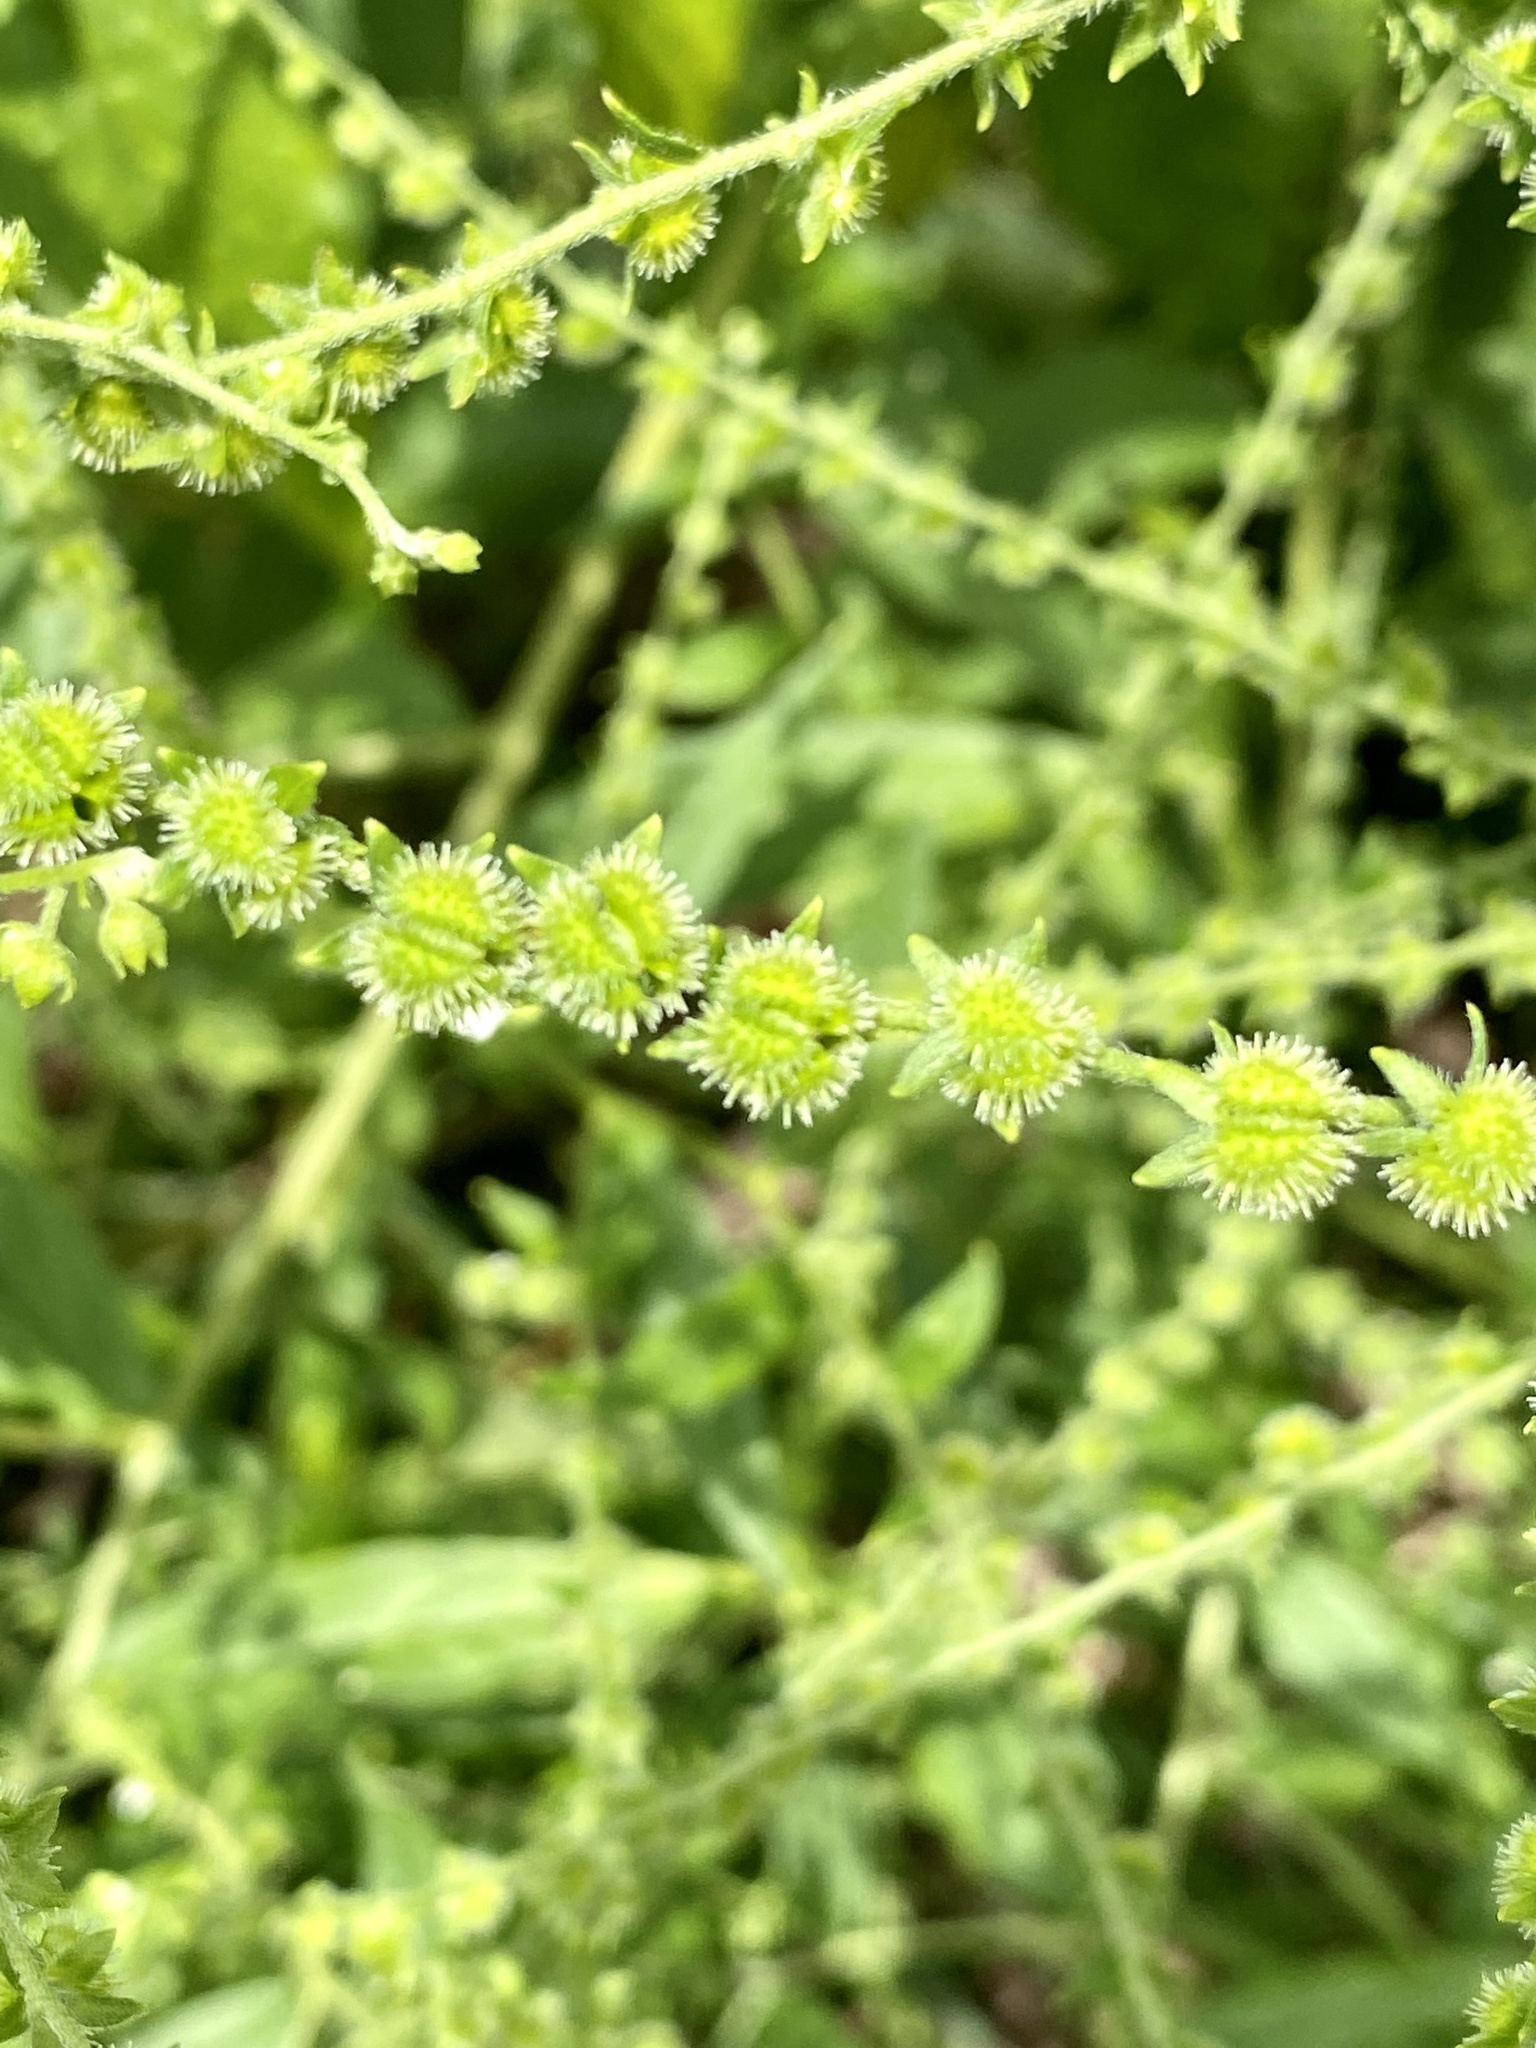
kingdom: Plantae
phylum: Tracheophyta
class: Magnoliopsida
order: Boraginales
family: Boraginaceae
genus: Hackelia
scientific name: Hackelia virginiana
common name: Beggar's-lice
